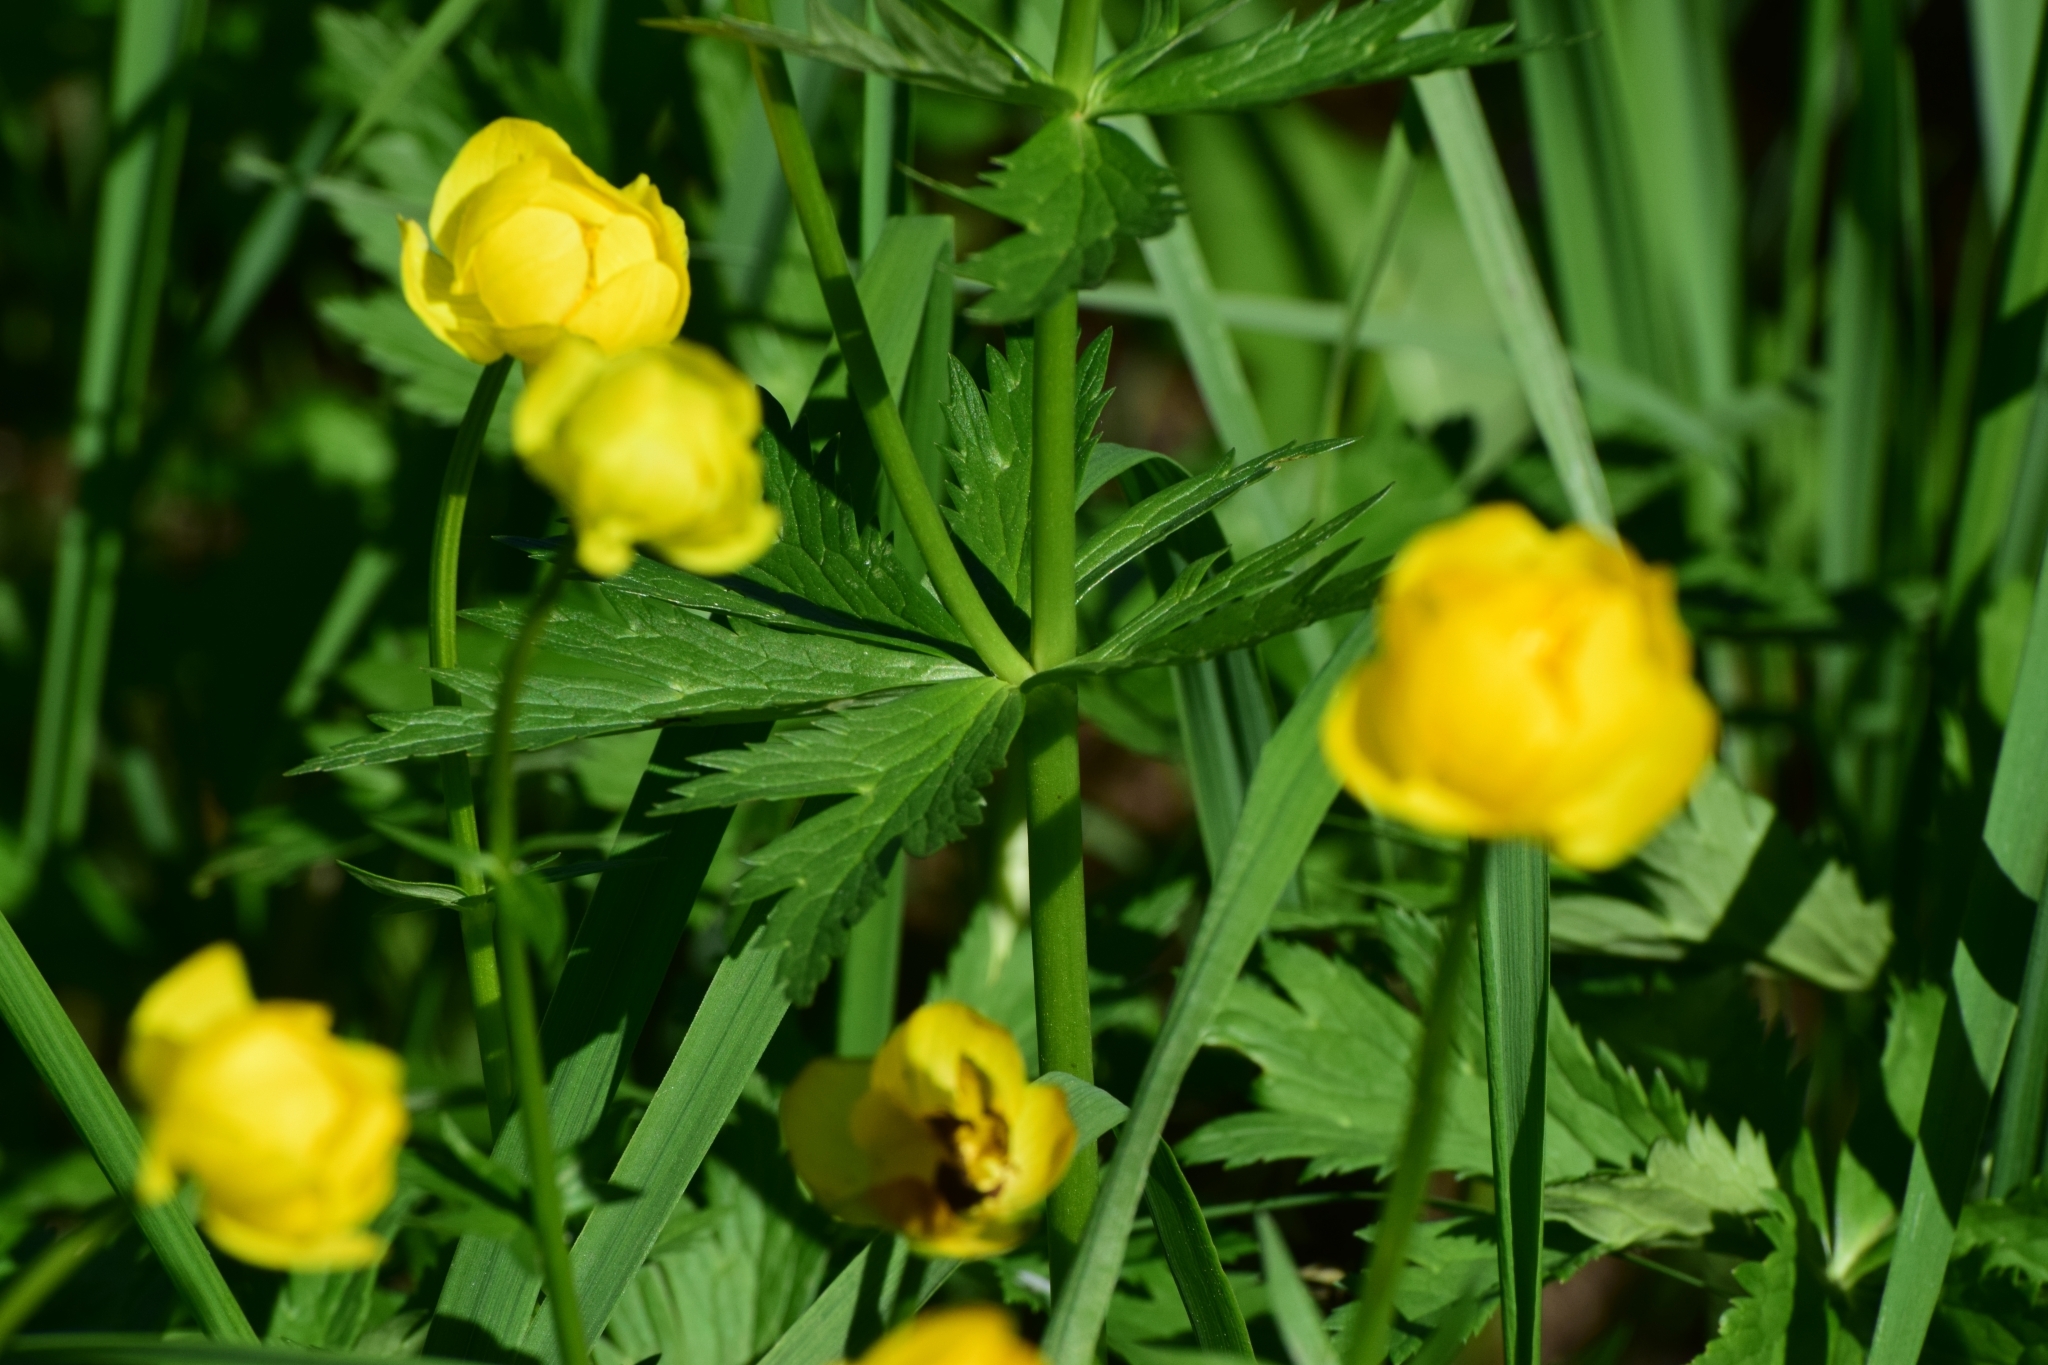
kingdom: Plantae
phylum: Tracheophyta
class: Magnoliopsida
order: Ranunculales
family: Ranunculaceae
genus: Trollius
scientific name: Trollius europaeus
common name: European globeflower
